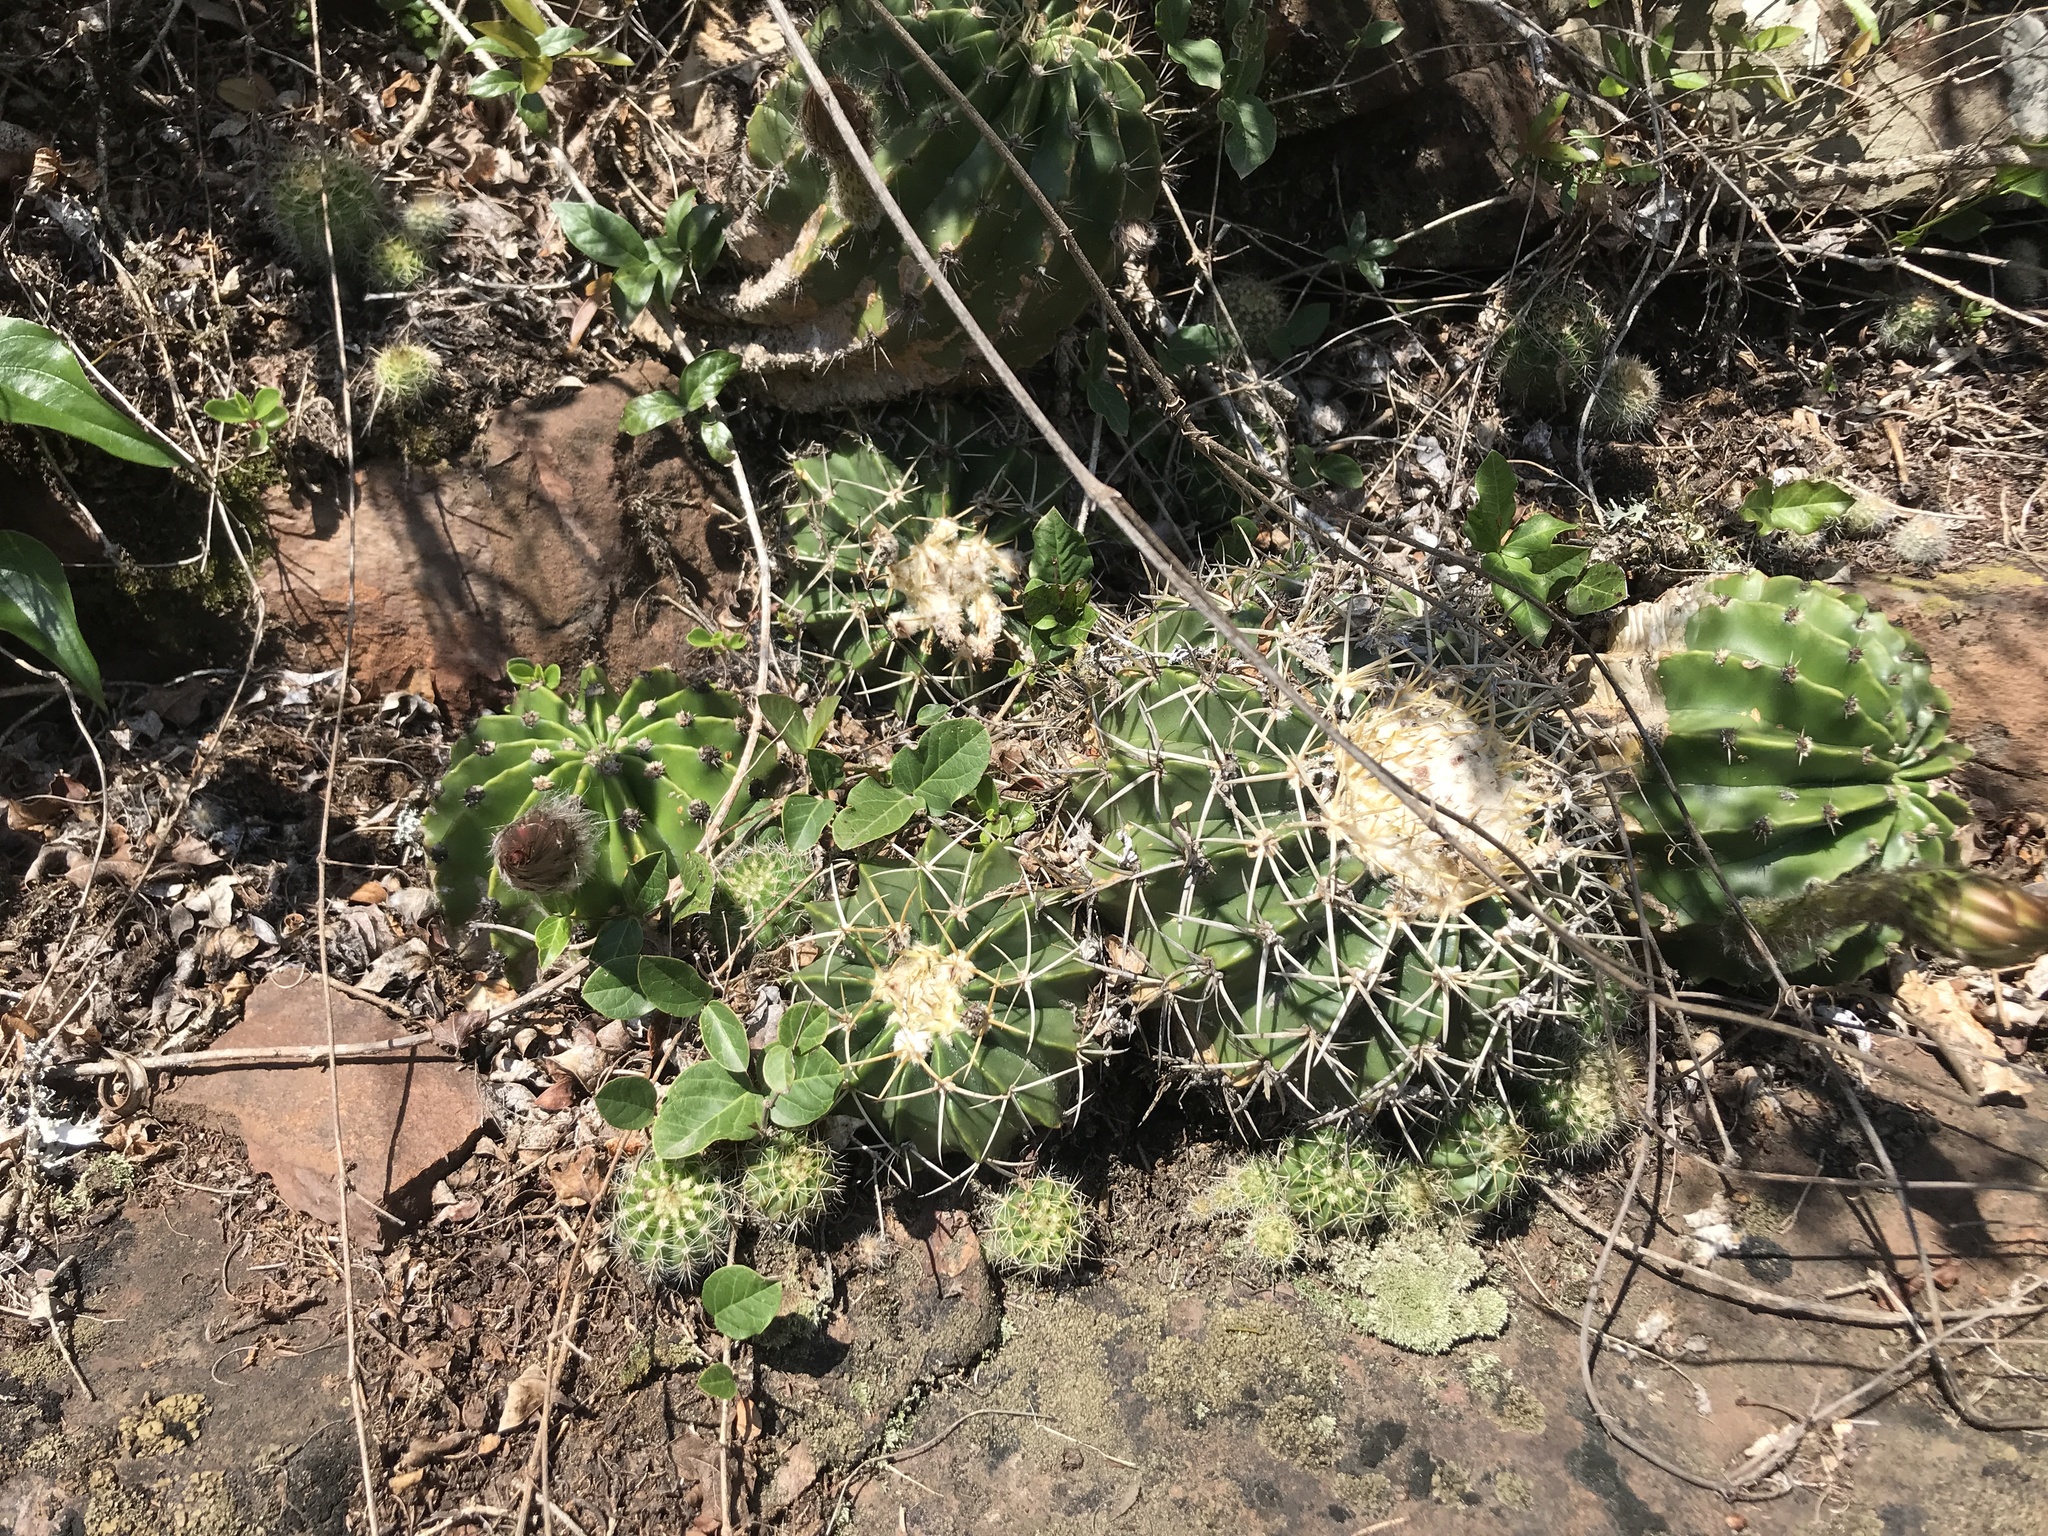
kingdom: Plantae
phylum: Tracheophyta
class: Magnoliopsida
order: Caryophyllales
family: Cactaceae
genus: Parodia
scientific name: Parodia erinacea
